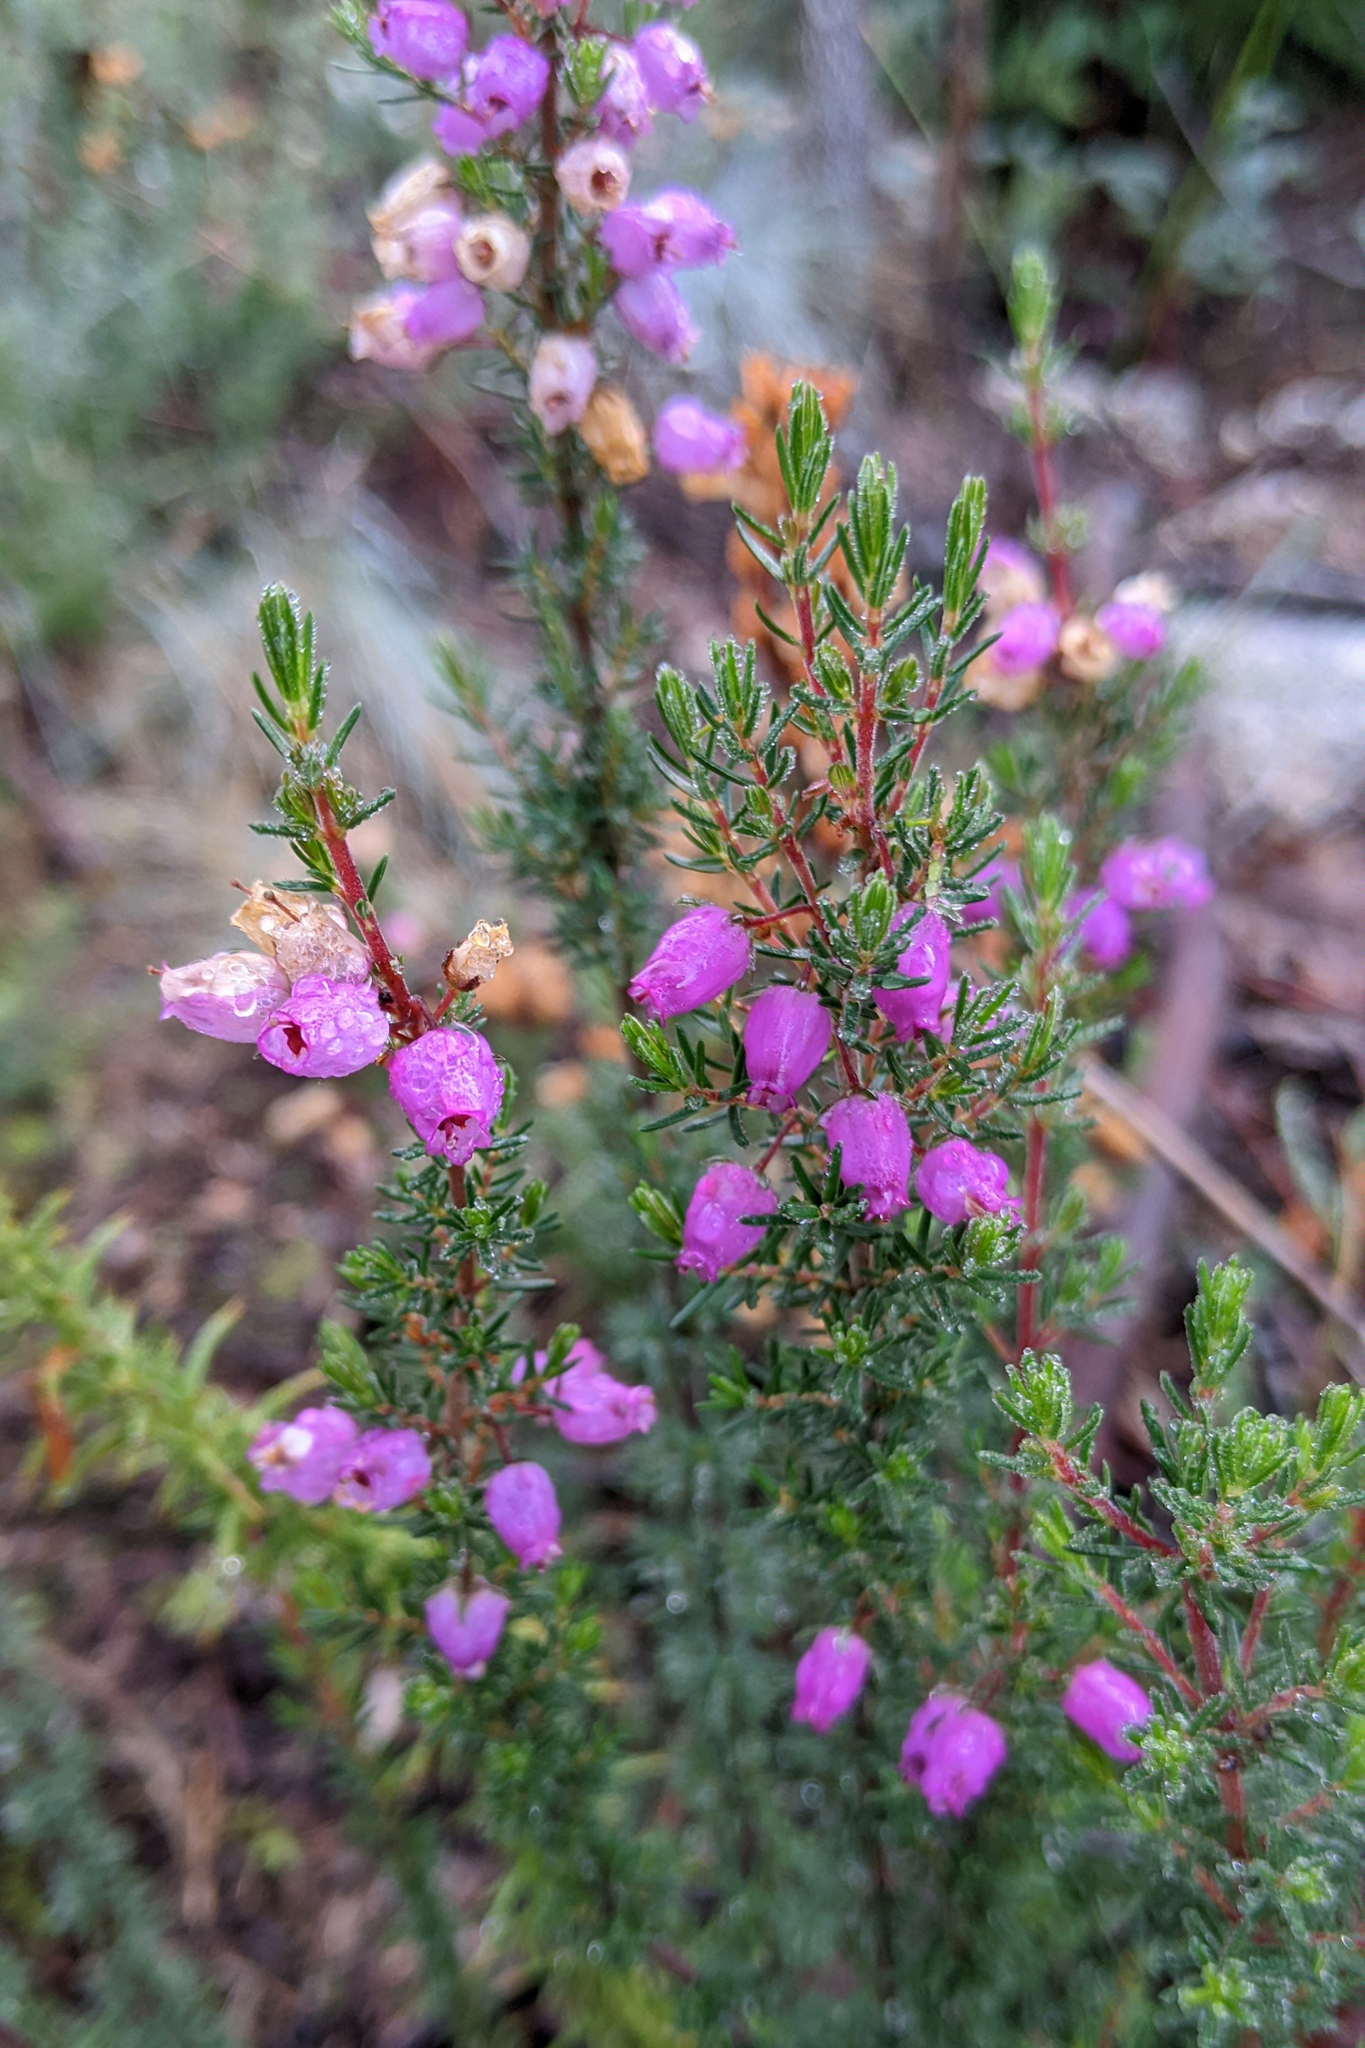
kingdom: Plantae
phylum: Tracheophyta
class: Magnoliopsida
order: Ericales
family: Ericaceae
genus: Erica
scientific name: Erica cinerea
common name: Bell heather
